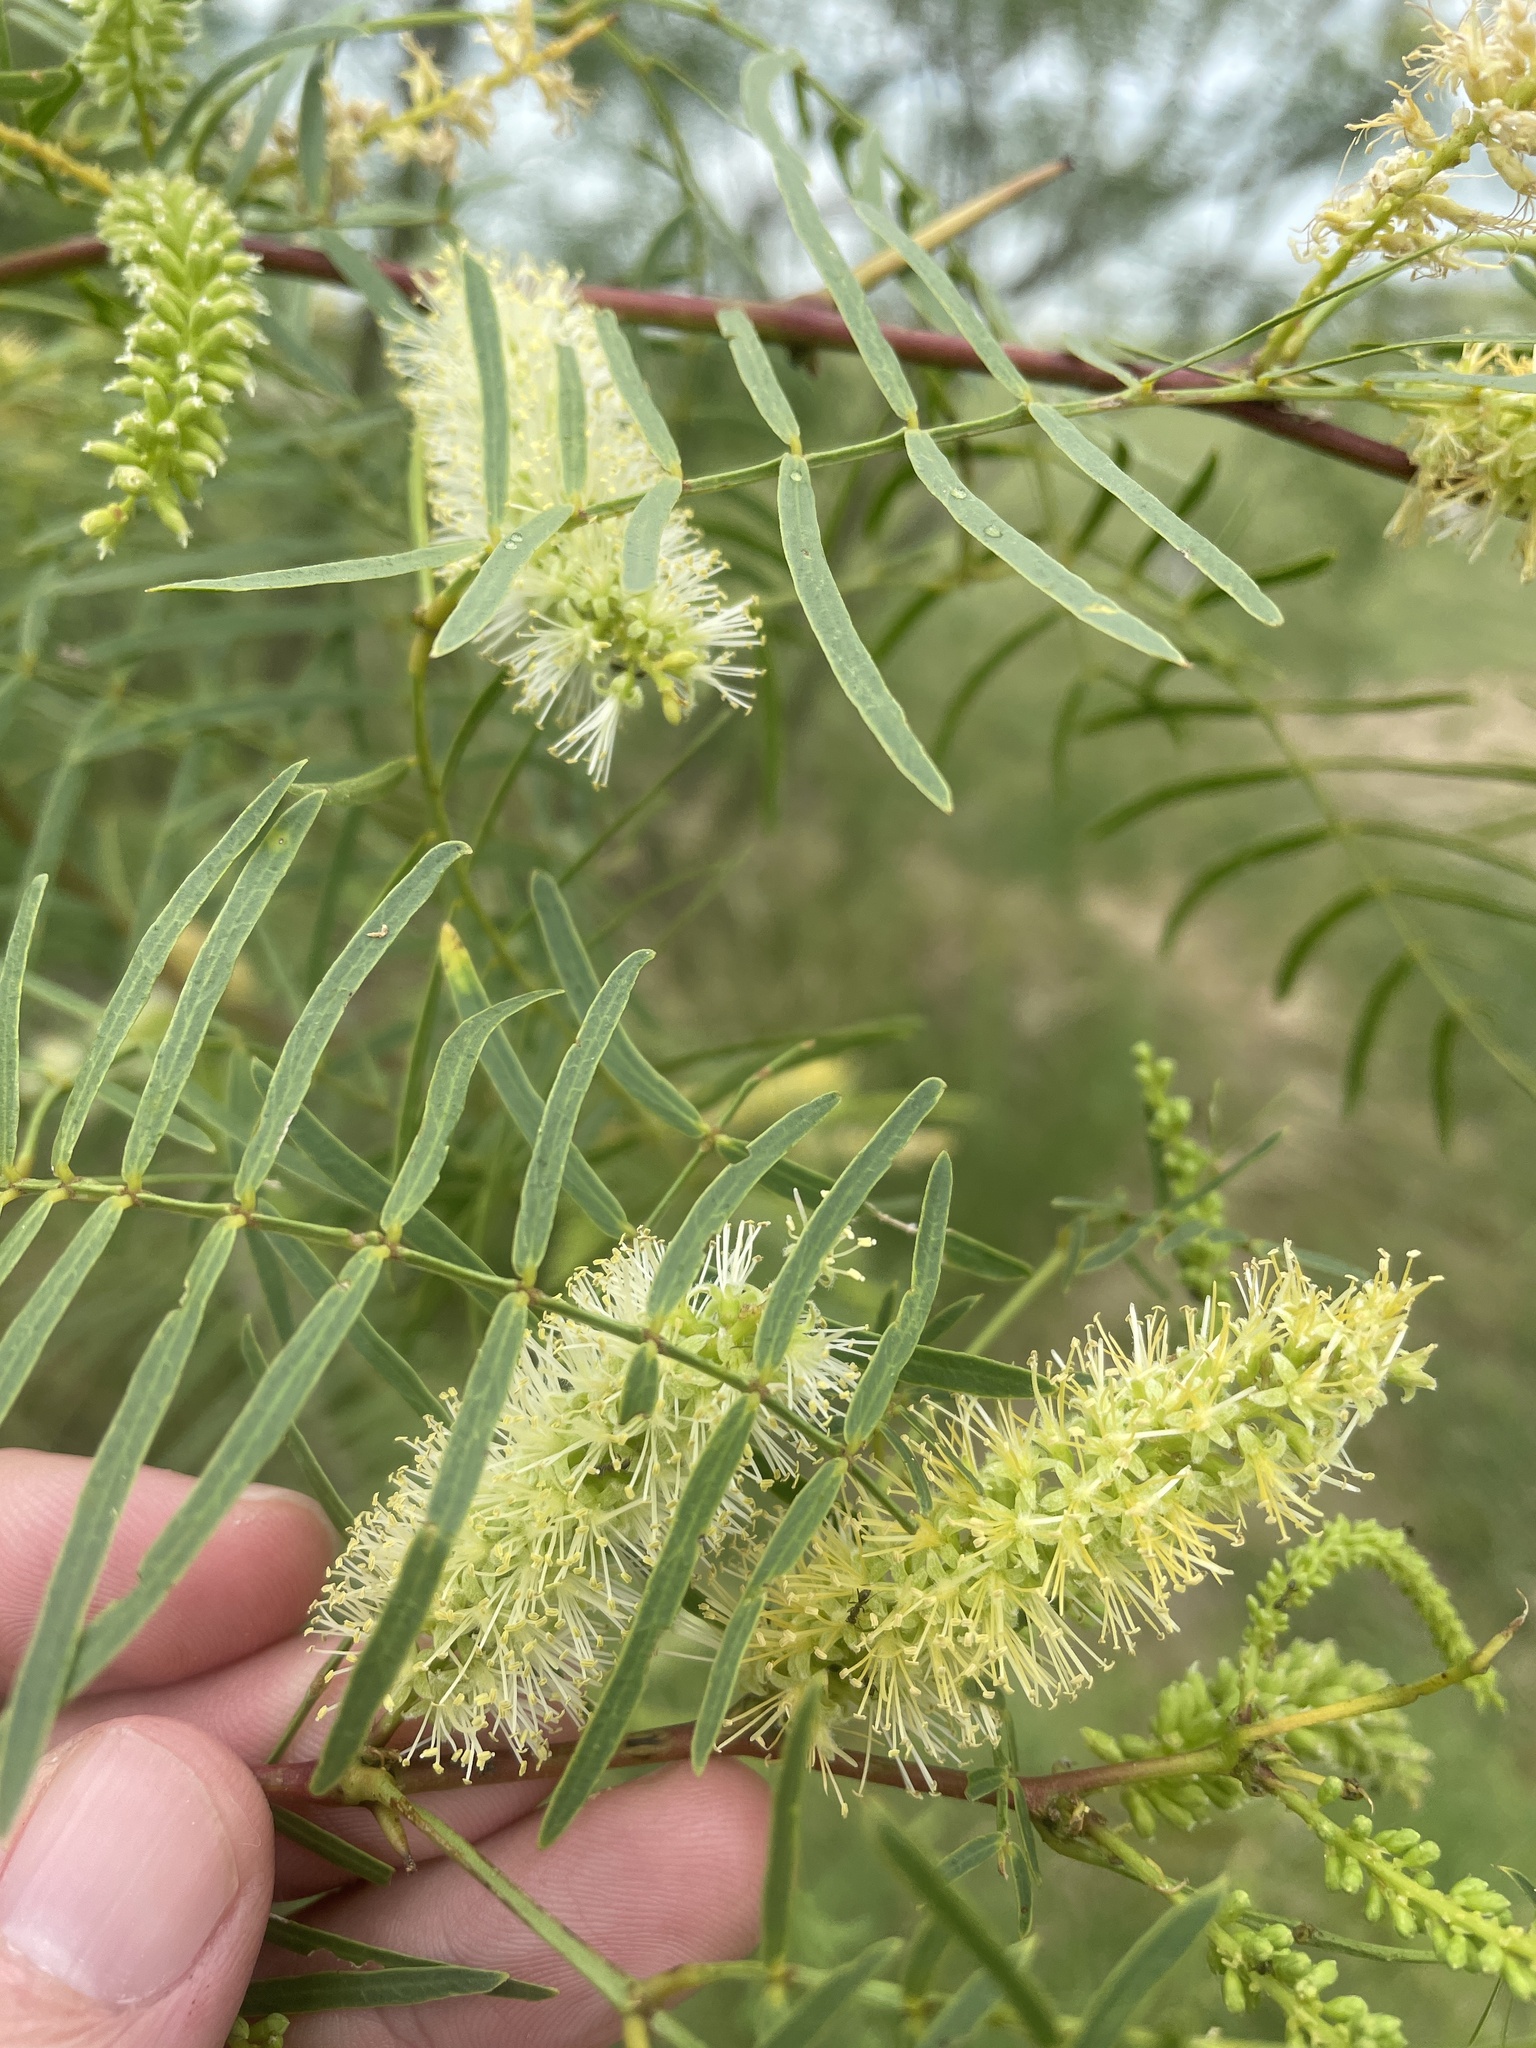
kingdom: Plantae
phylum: Tracheophyta
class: Magnoliopsida
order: Fabales
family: Fabaceae
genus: Prosopis
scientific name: Prosopis glandulosa
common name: Honey mesquite
